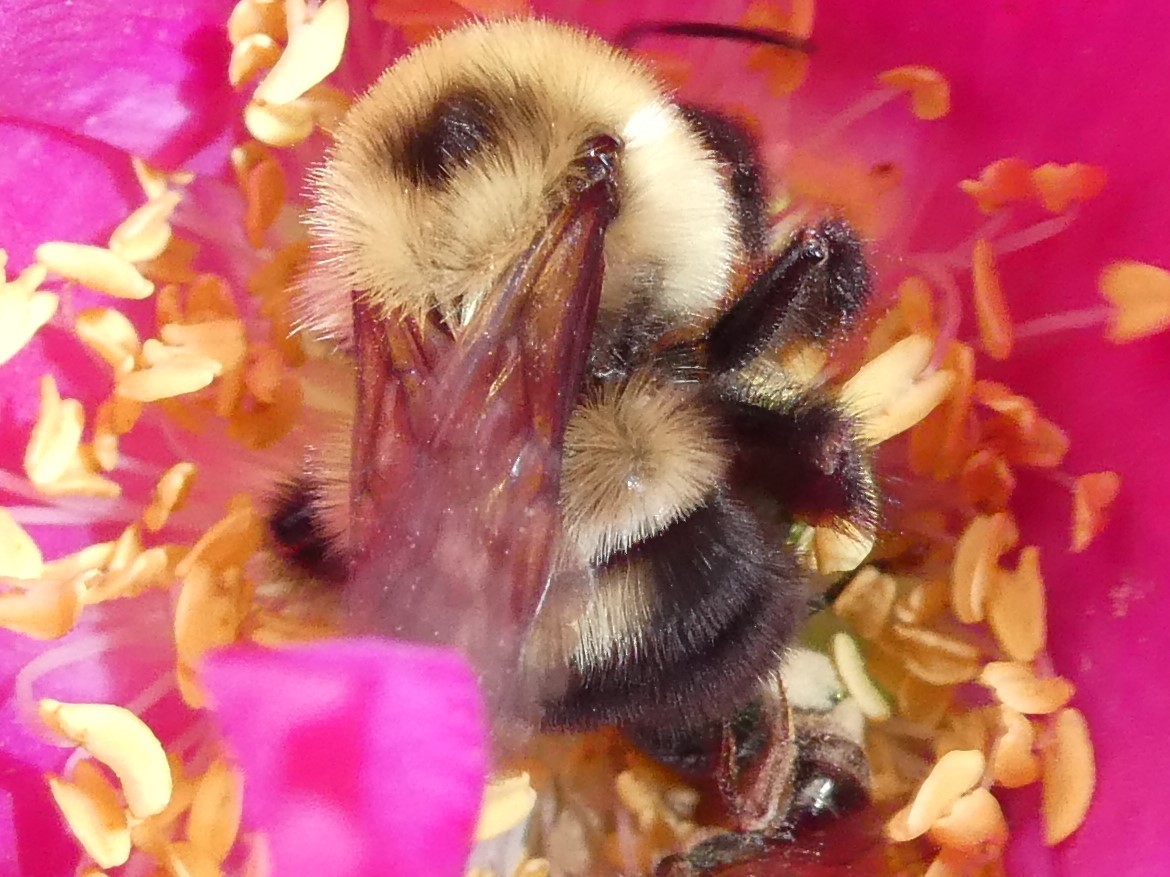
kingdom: Animalia
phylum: Arthropoda
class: Insecta
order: Hymenoptera
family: Apidae
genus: Bombus
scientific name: Bombus bimaculatus
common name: Two-spotted bumble bee
